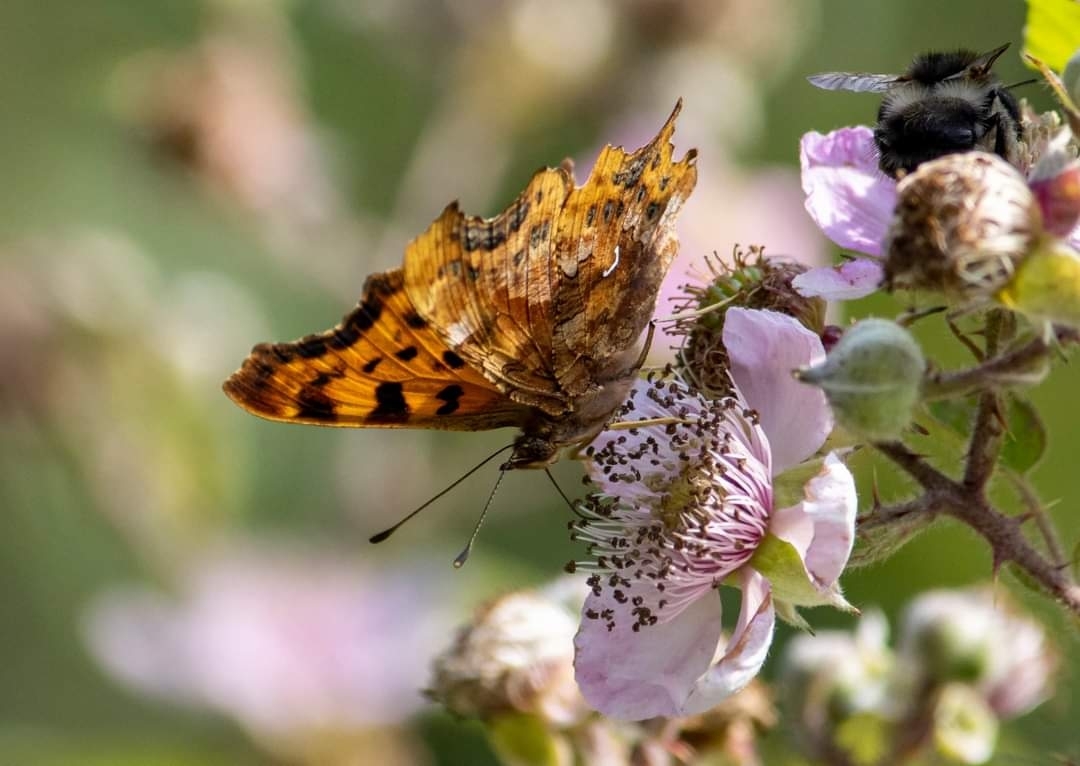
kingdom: Animalia
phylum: Arthropoda
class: Insecta
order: Lepidoptera
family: Nymphalidae
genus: Polygonia
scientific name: Polygonia c-album
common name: Comma
